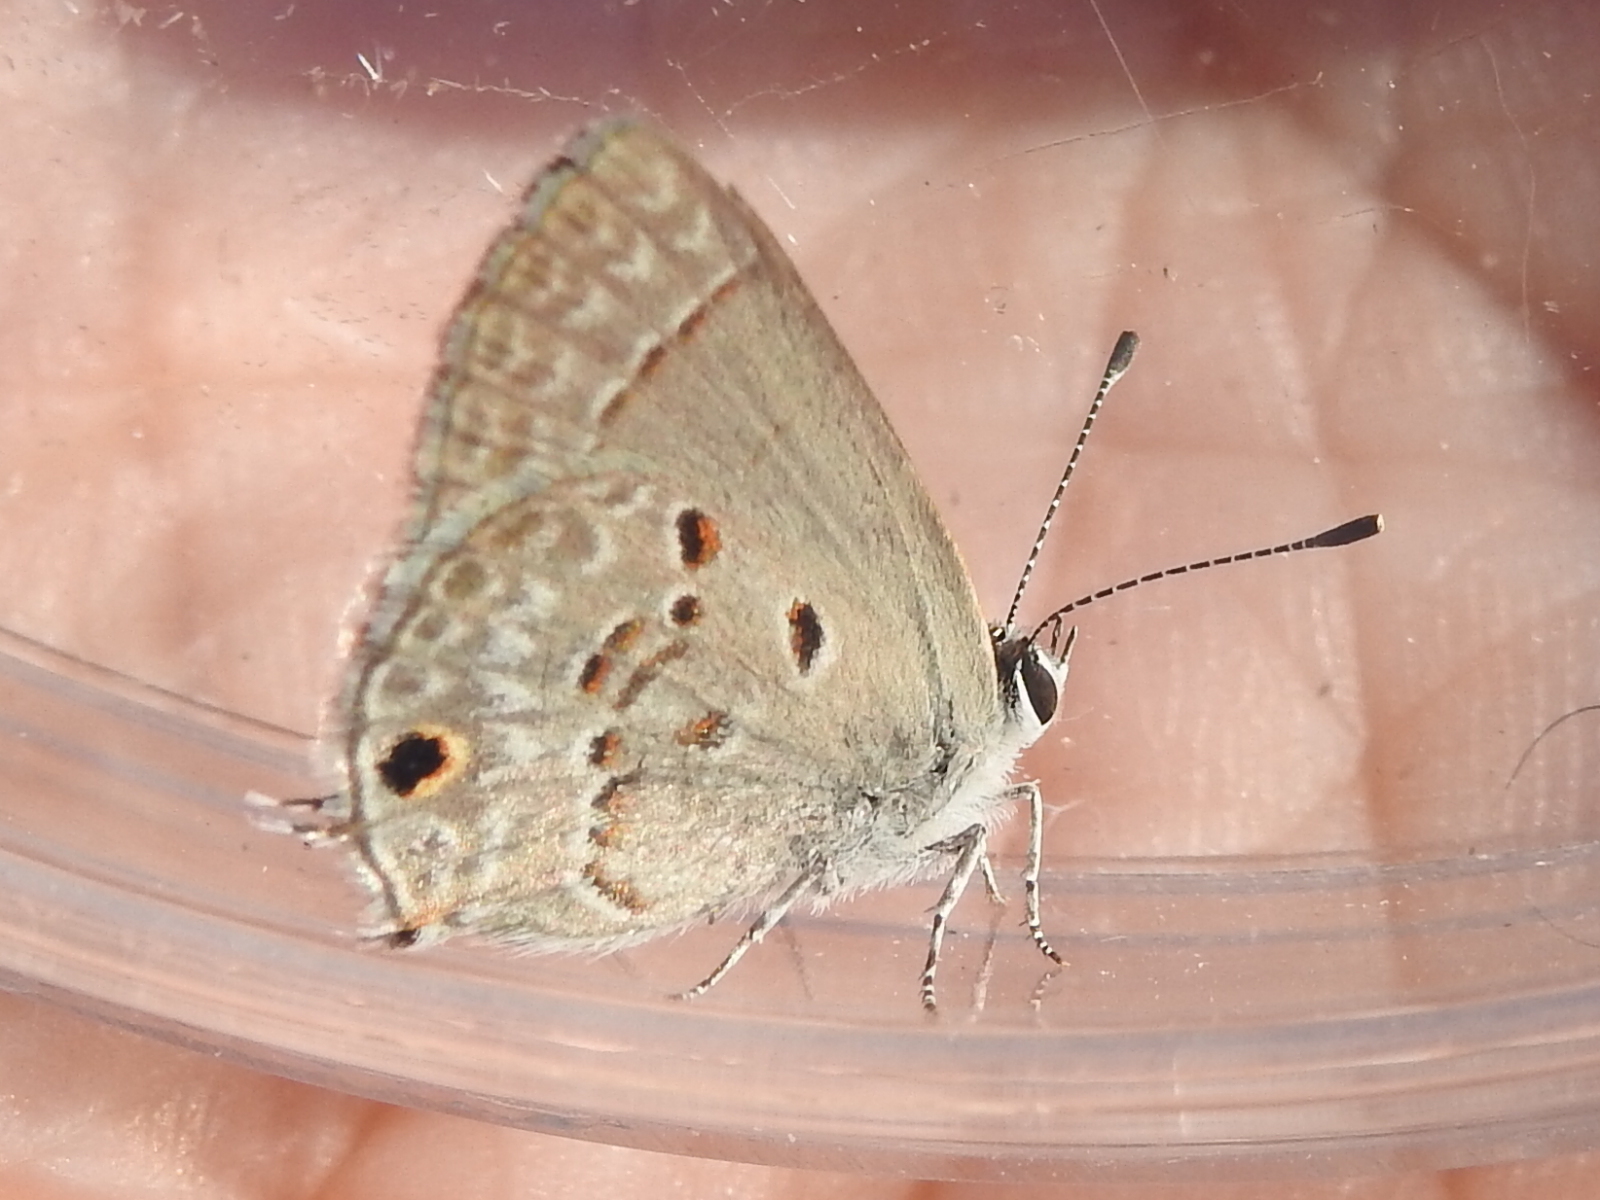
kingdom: Animalia
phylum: Arthropoda
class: Insecta
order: Lepidoptera
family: Lycaenidae
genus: Callicista
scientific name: Callicista columella
